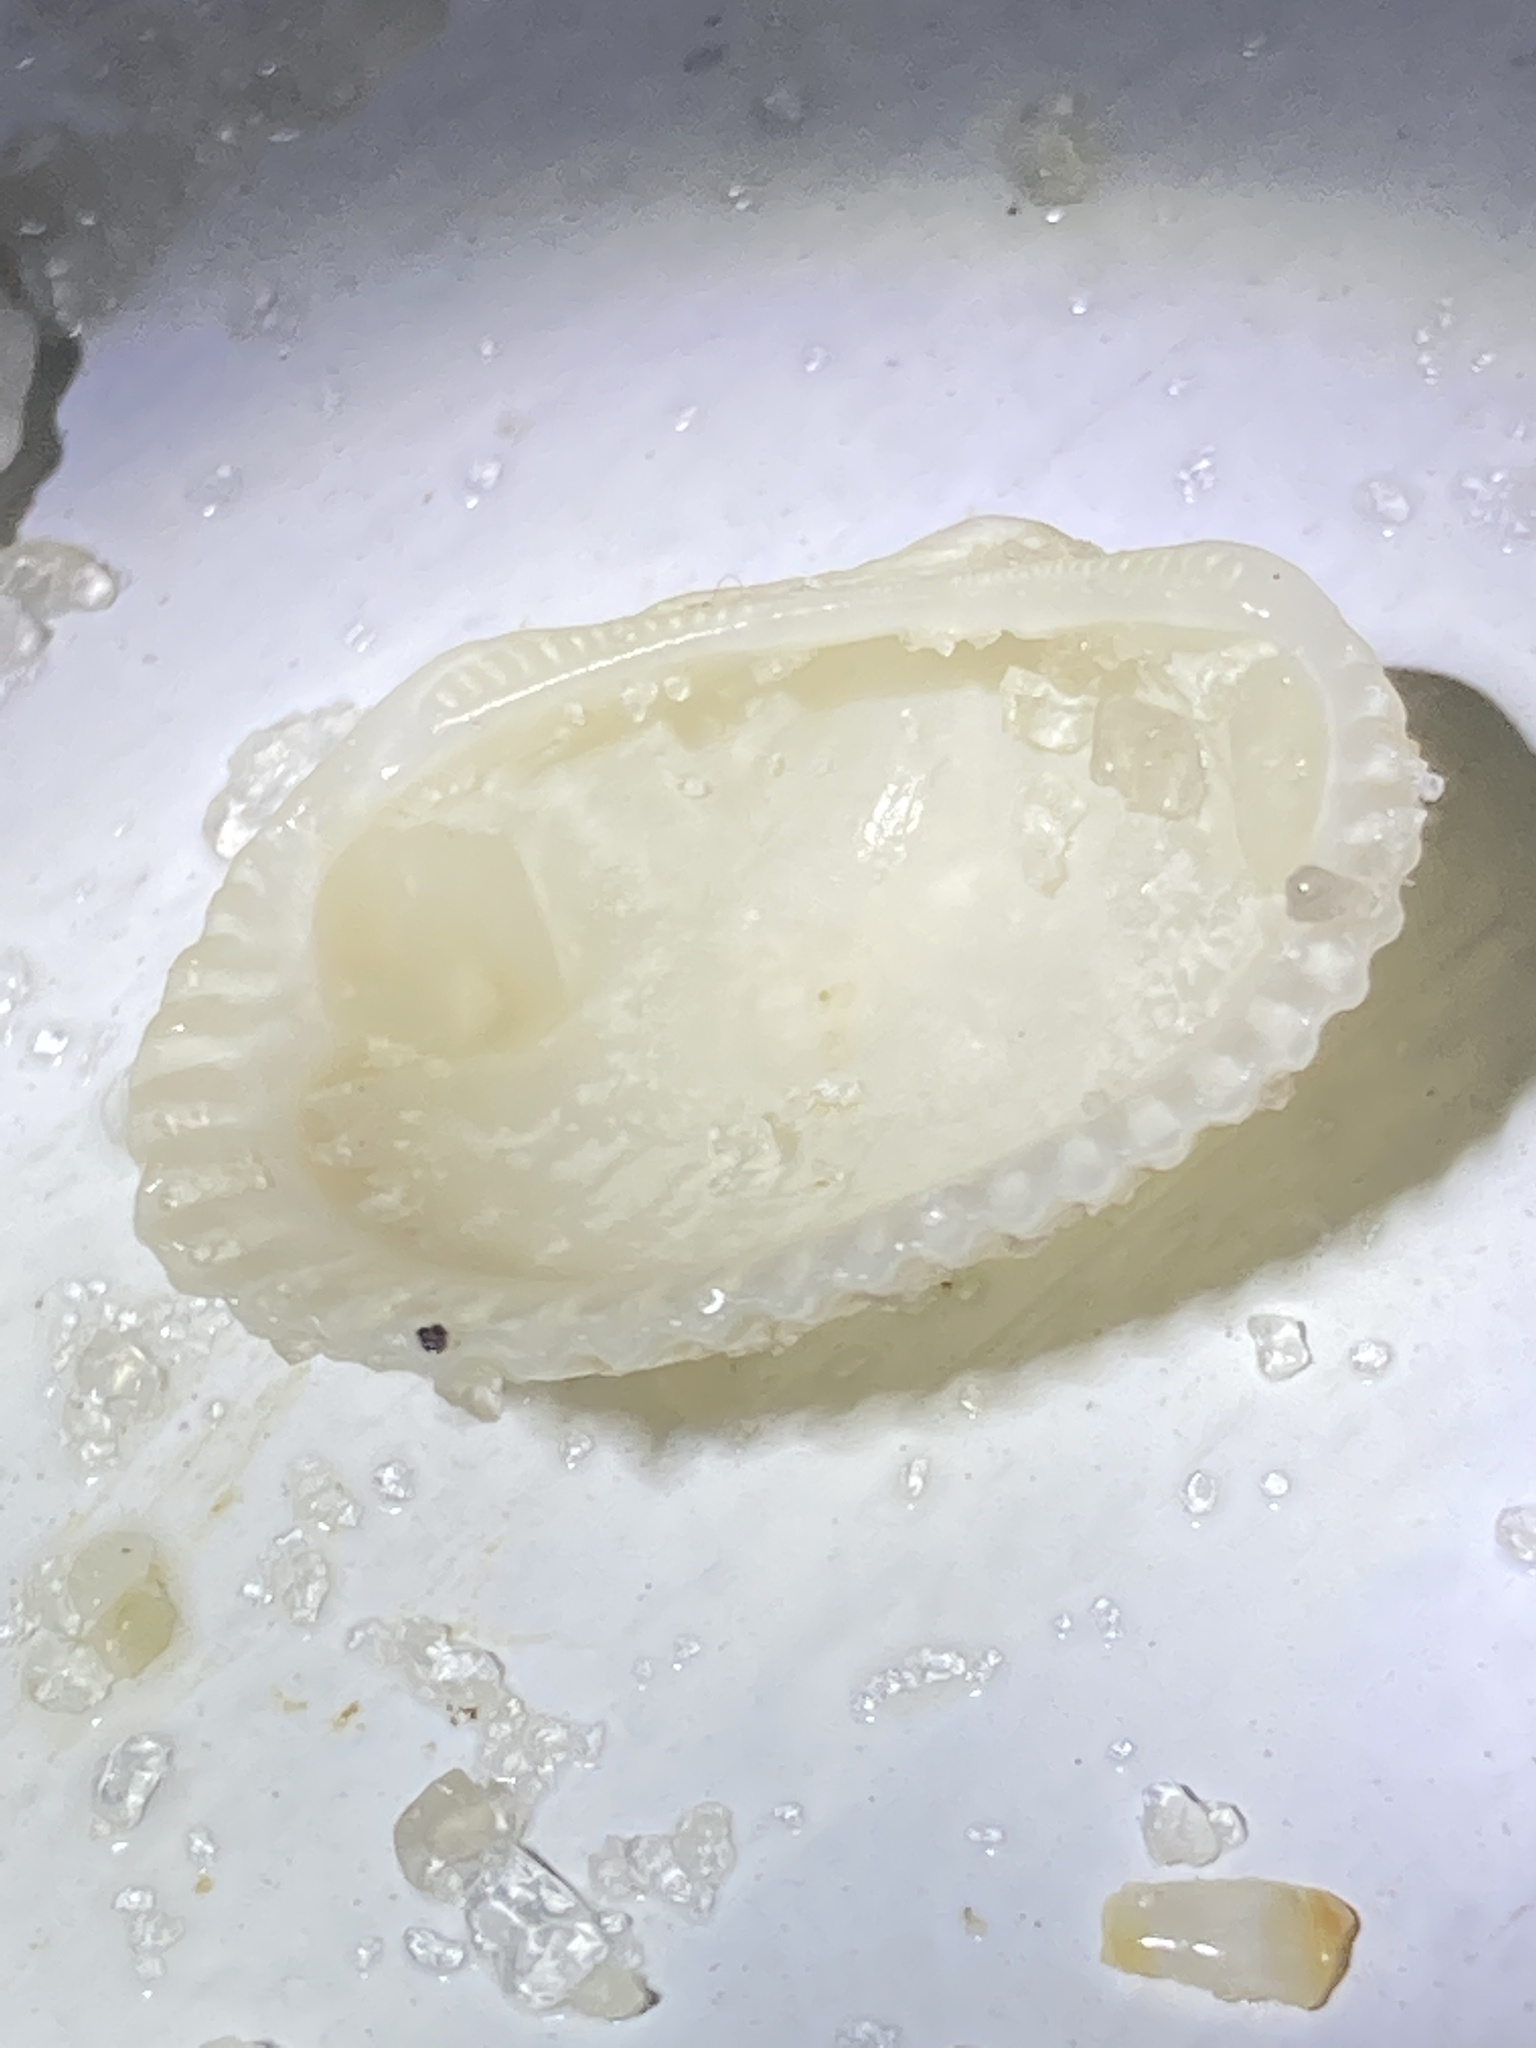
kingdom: Animalia
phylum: Mollusca
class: Bivalvia
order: Arcida
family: Arcidae
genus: Anadara
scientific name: Anadara transversa
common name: Transverse ark
